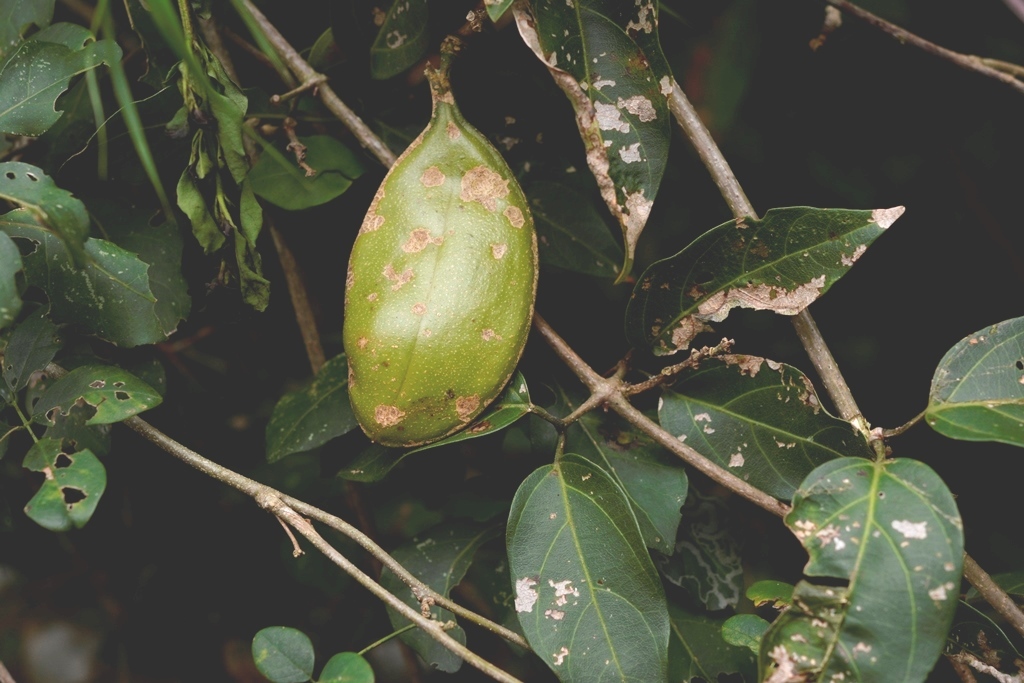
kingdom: Plantae
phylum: Tracheophyta
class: Magnoliopsida
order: Lamiales
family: Bignoniaceae
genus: Anemopaegma
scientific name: Anemopaegma puberulum
